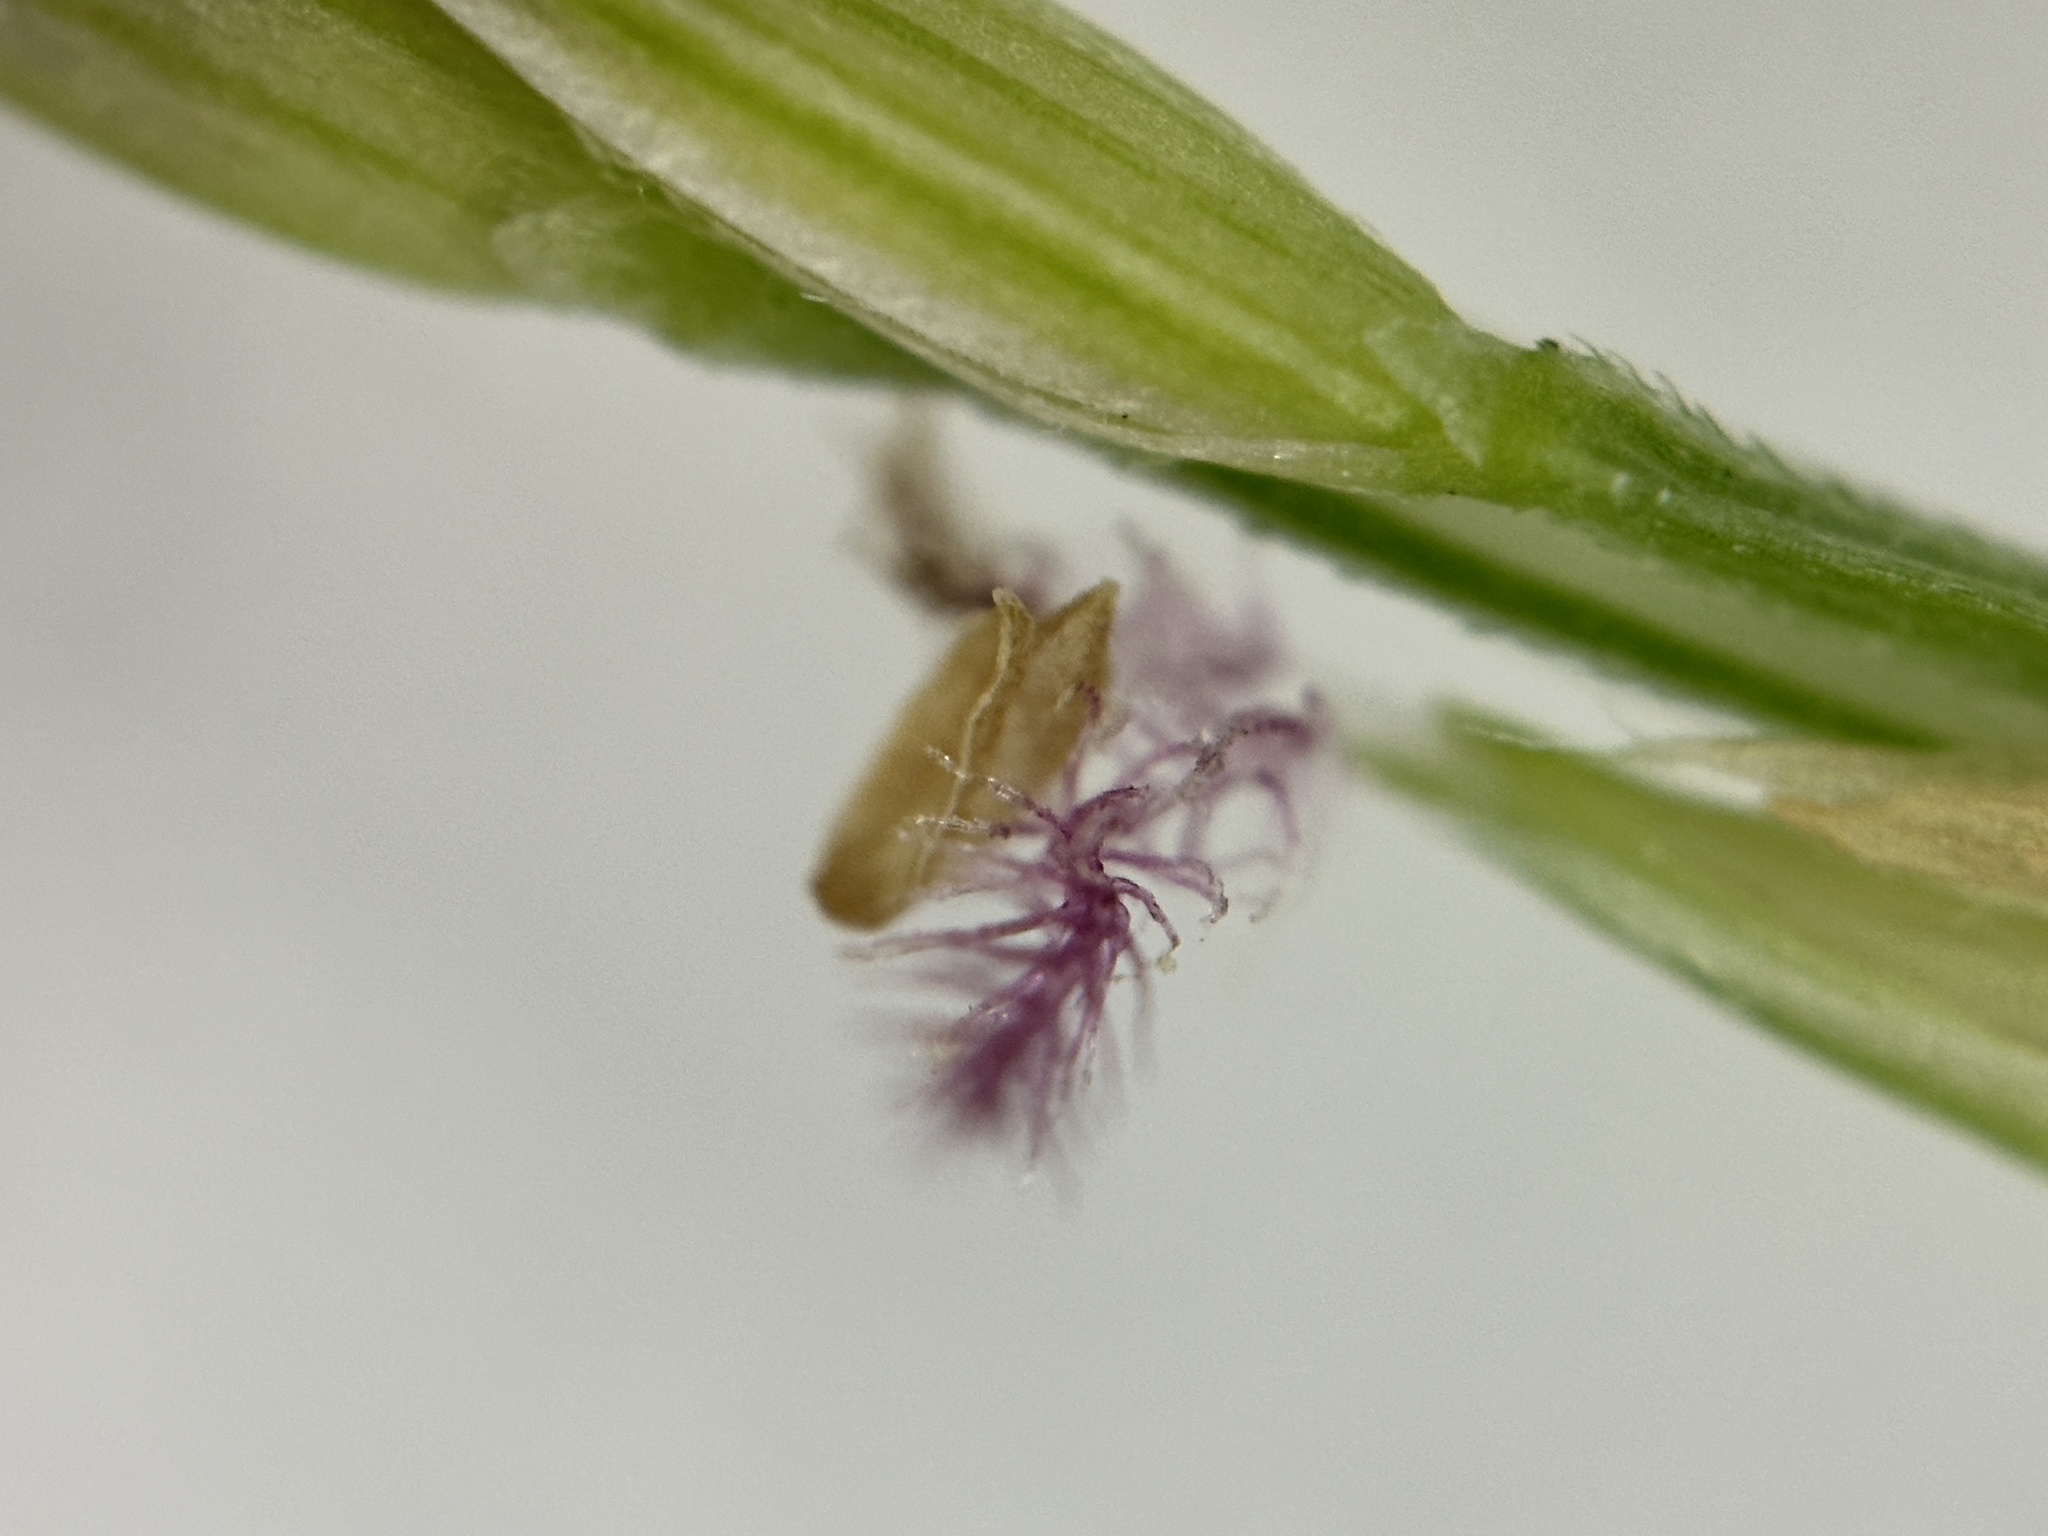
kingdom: Plantae
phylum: Tracheophyta
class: Liliopsida
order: Poales
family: Poaceae
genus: Digitaria
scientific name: Digitaria ciliaris
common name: Tropical finger-grass
